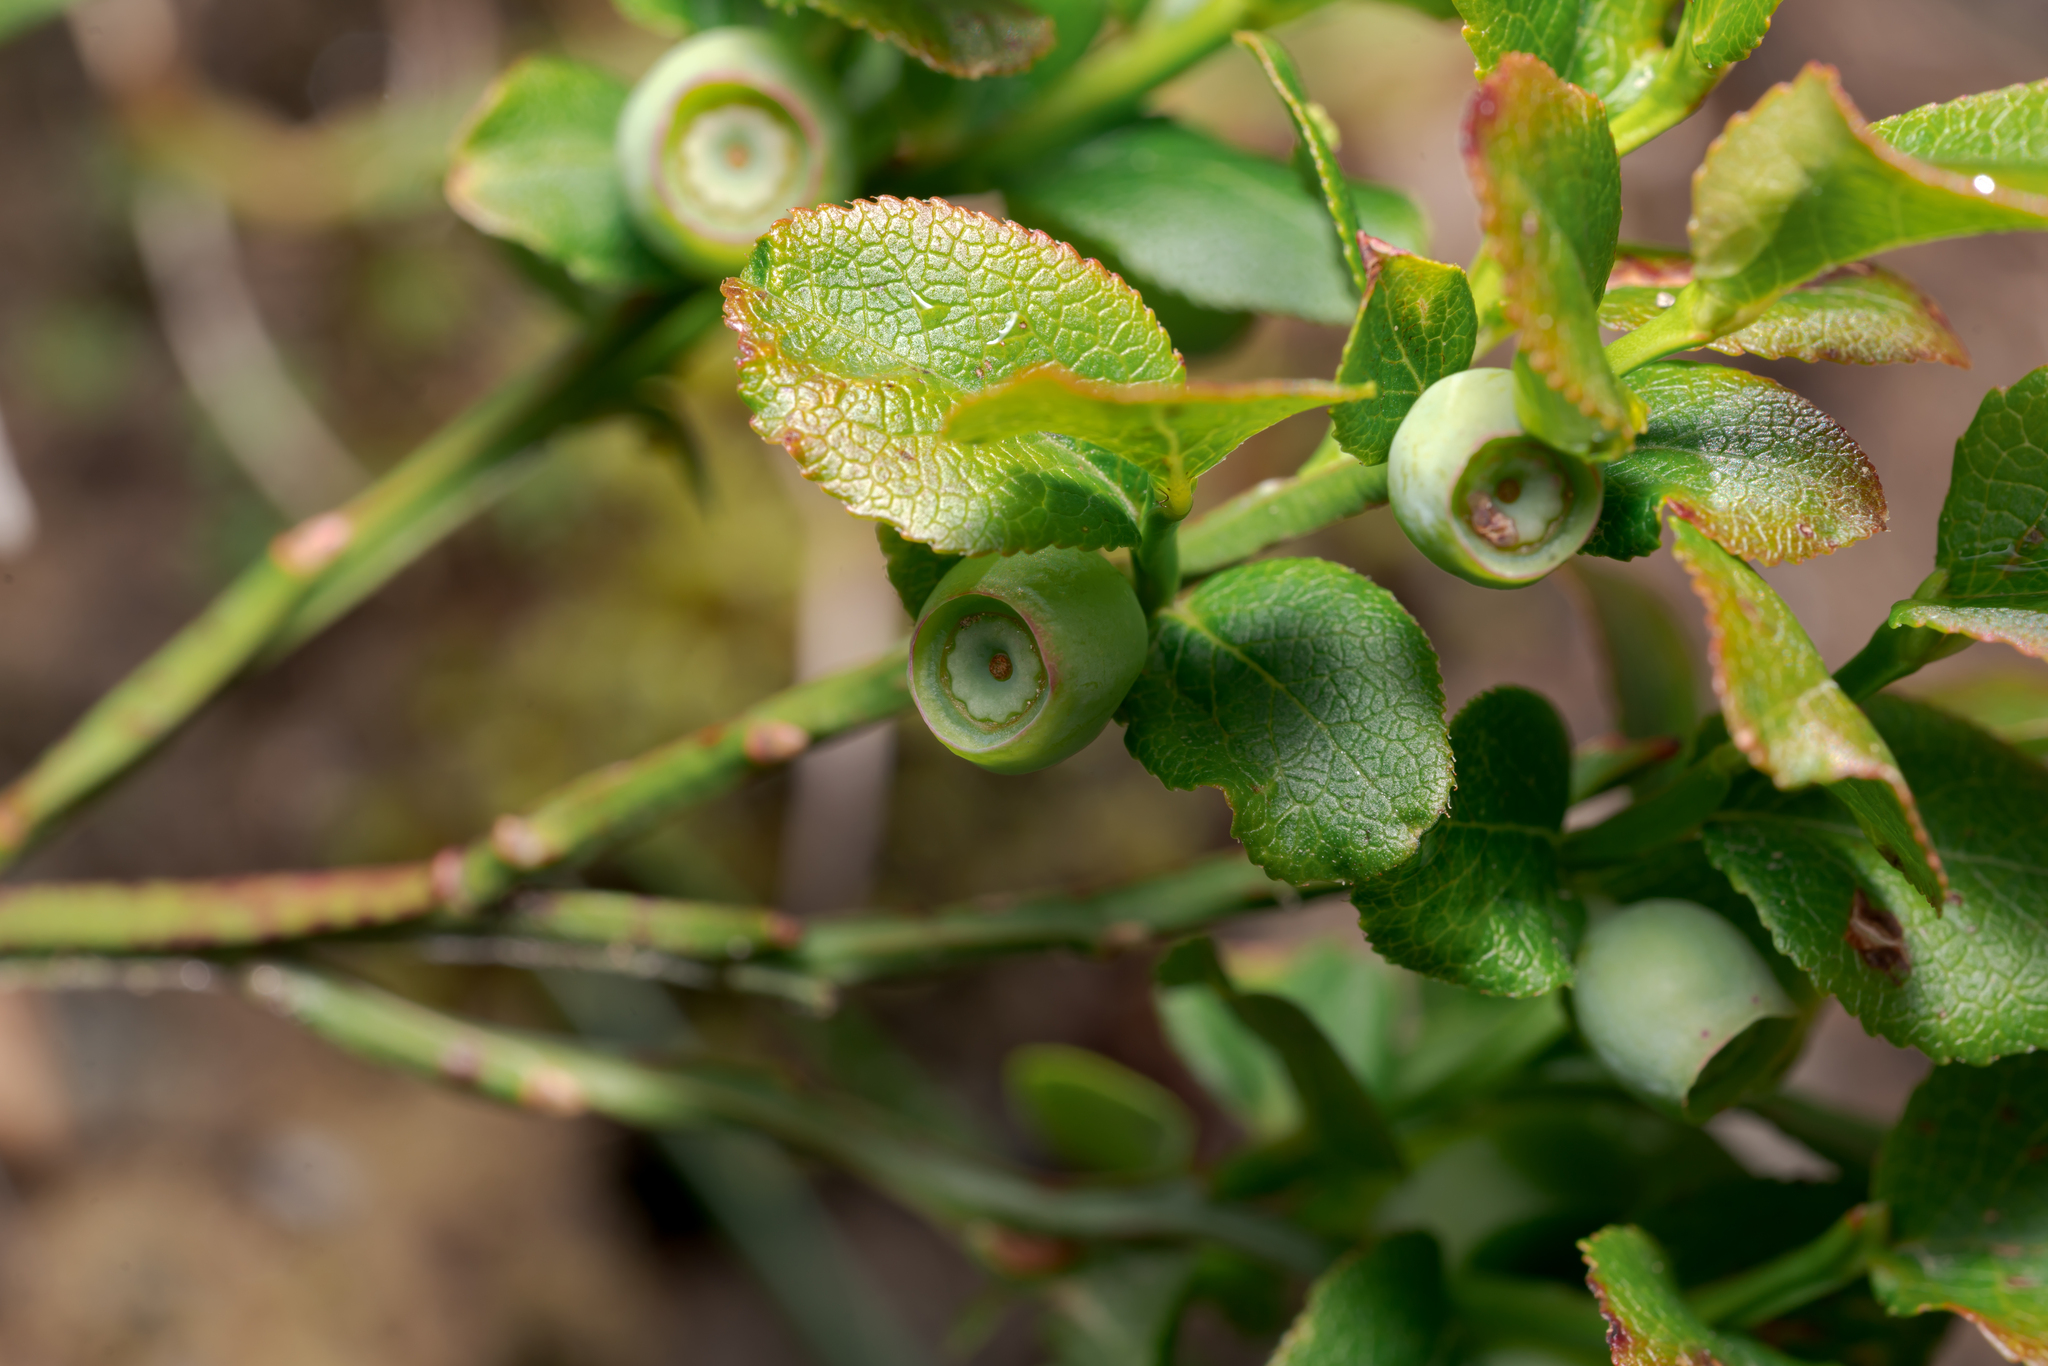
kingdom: Plantae
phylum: Tracheophyta
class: Magnoliopsida
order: Ericales
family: Ericaceae
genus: Vaccinium
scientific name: Vaccinium myrtillus
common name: Bilberry
